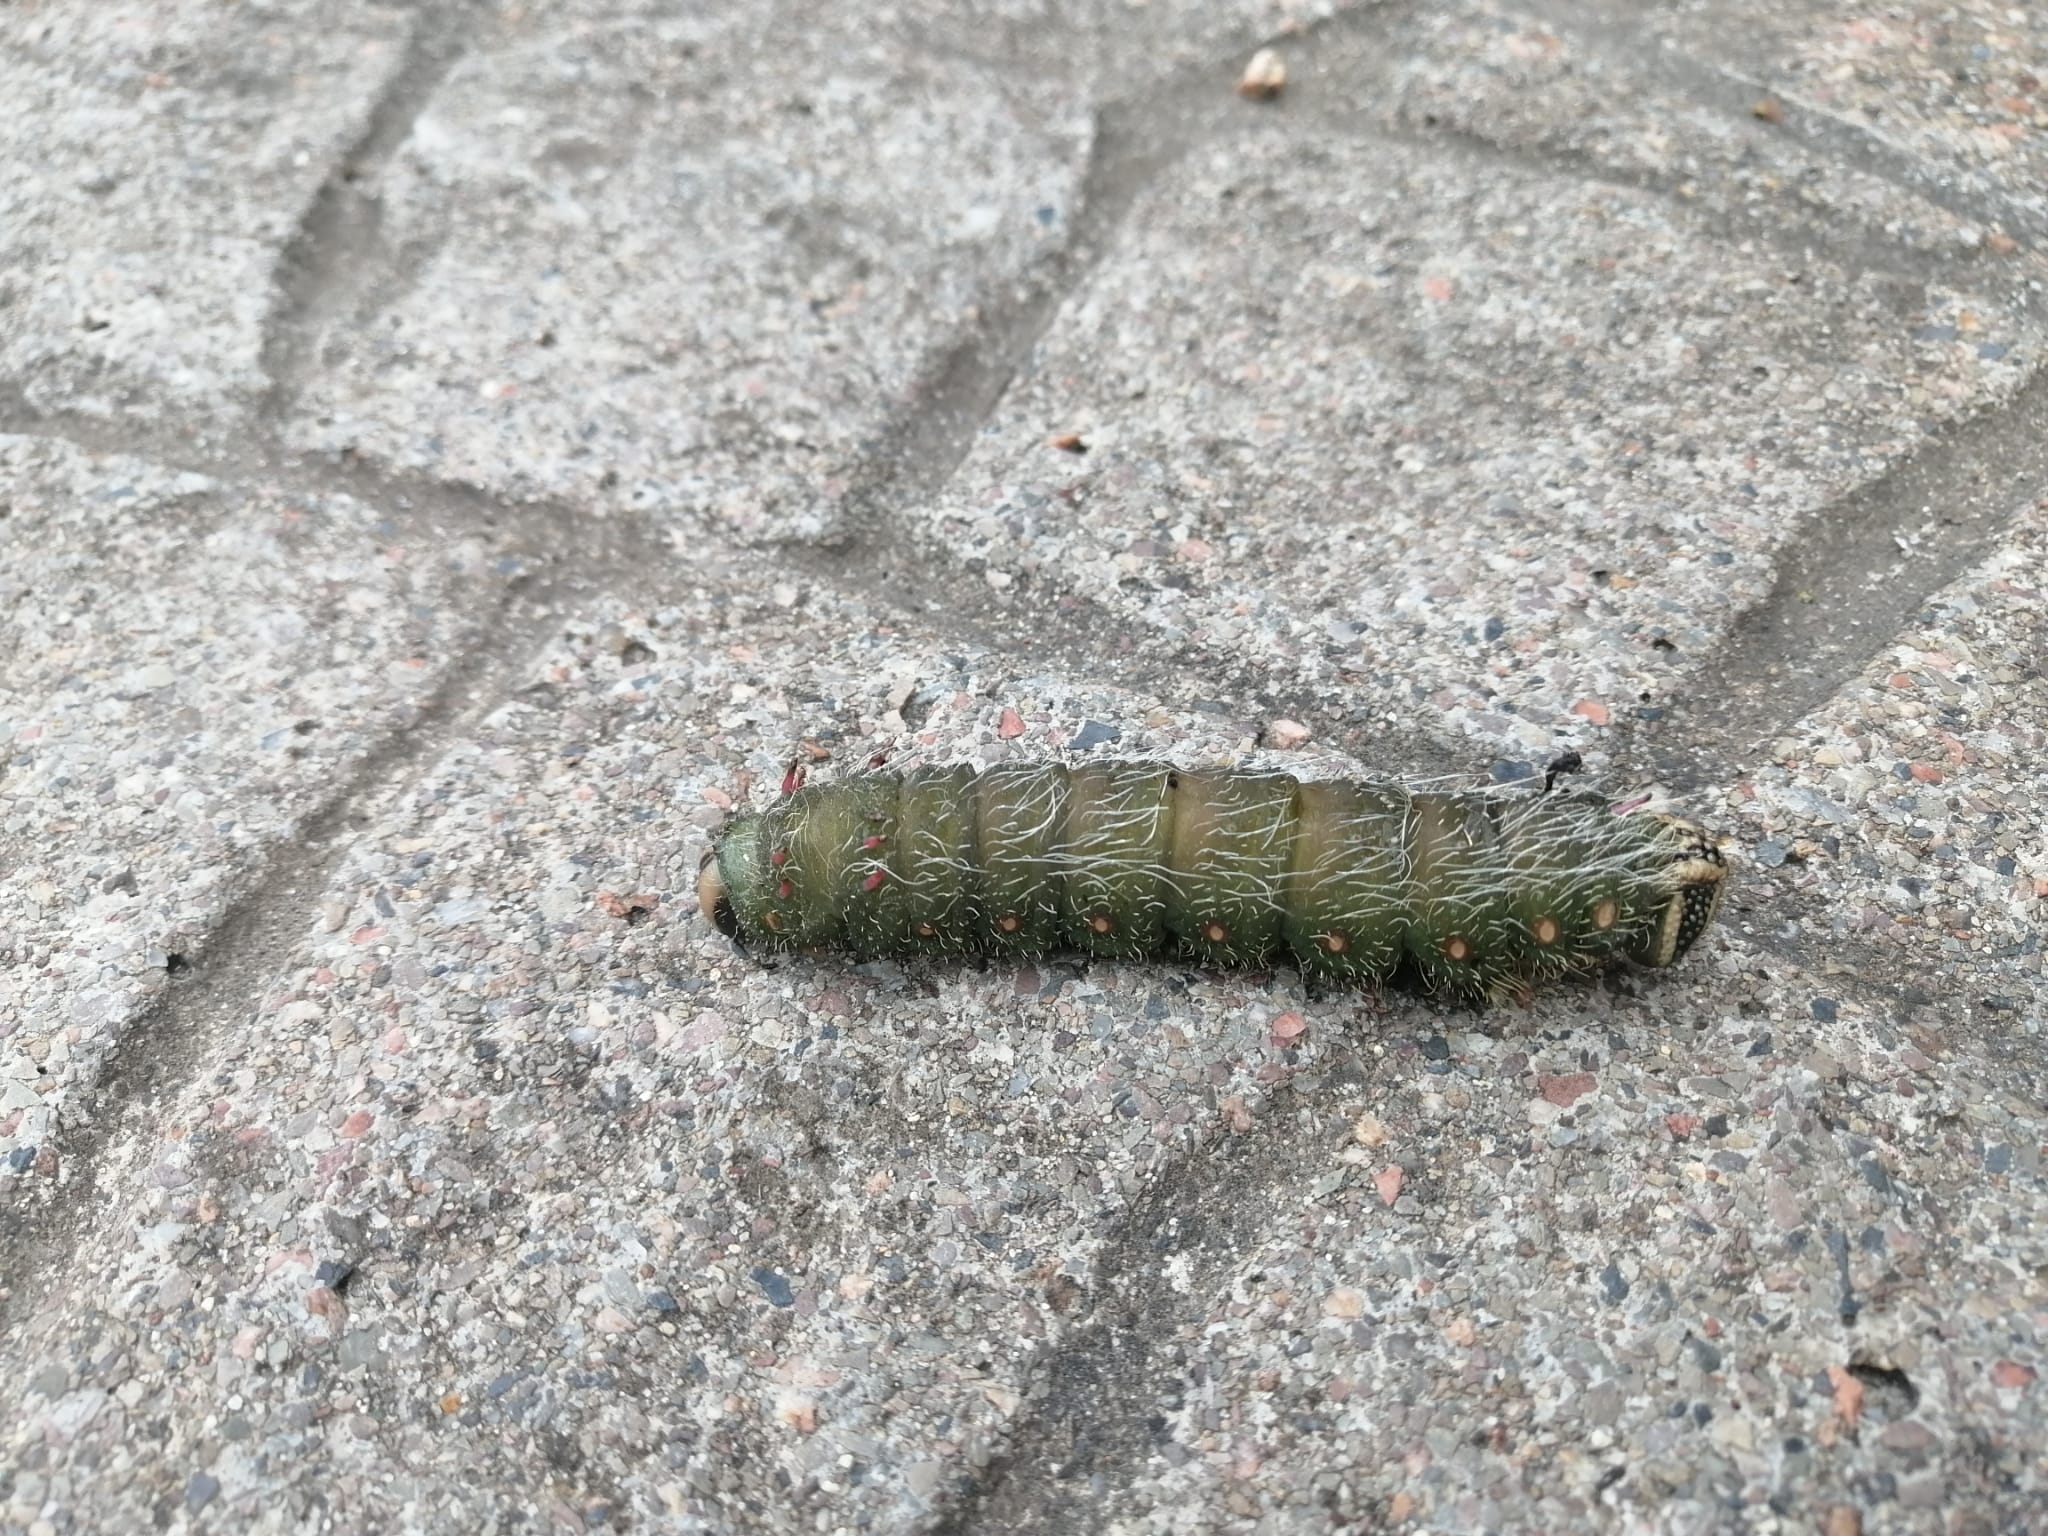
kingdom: Animalia
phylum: Arthropoda
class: Insecta
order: Lepidoptera
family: Saturniidae
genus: Eacles
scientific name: Eacles imperialis
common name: Imperial moth
